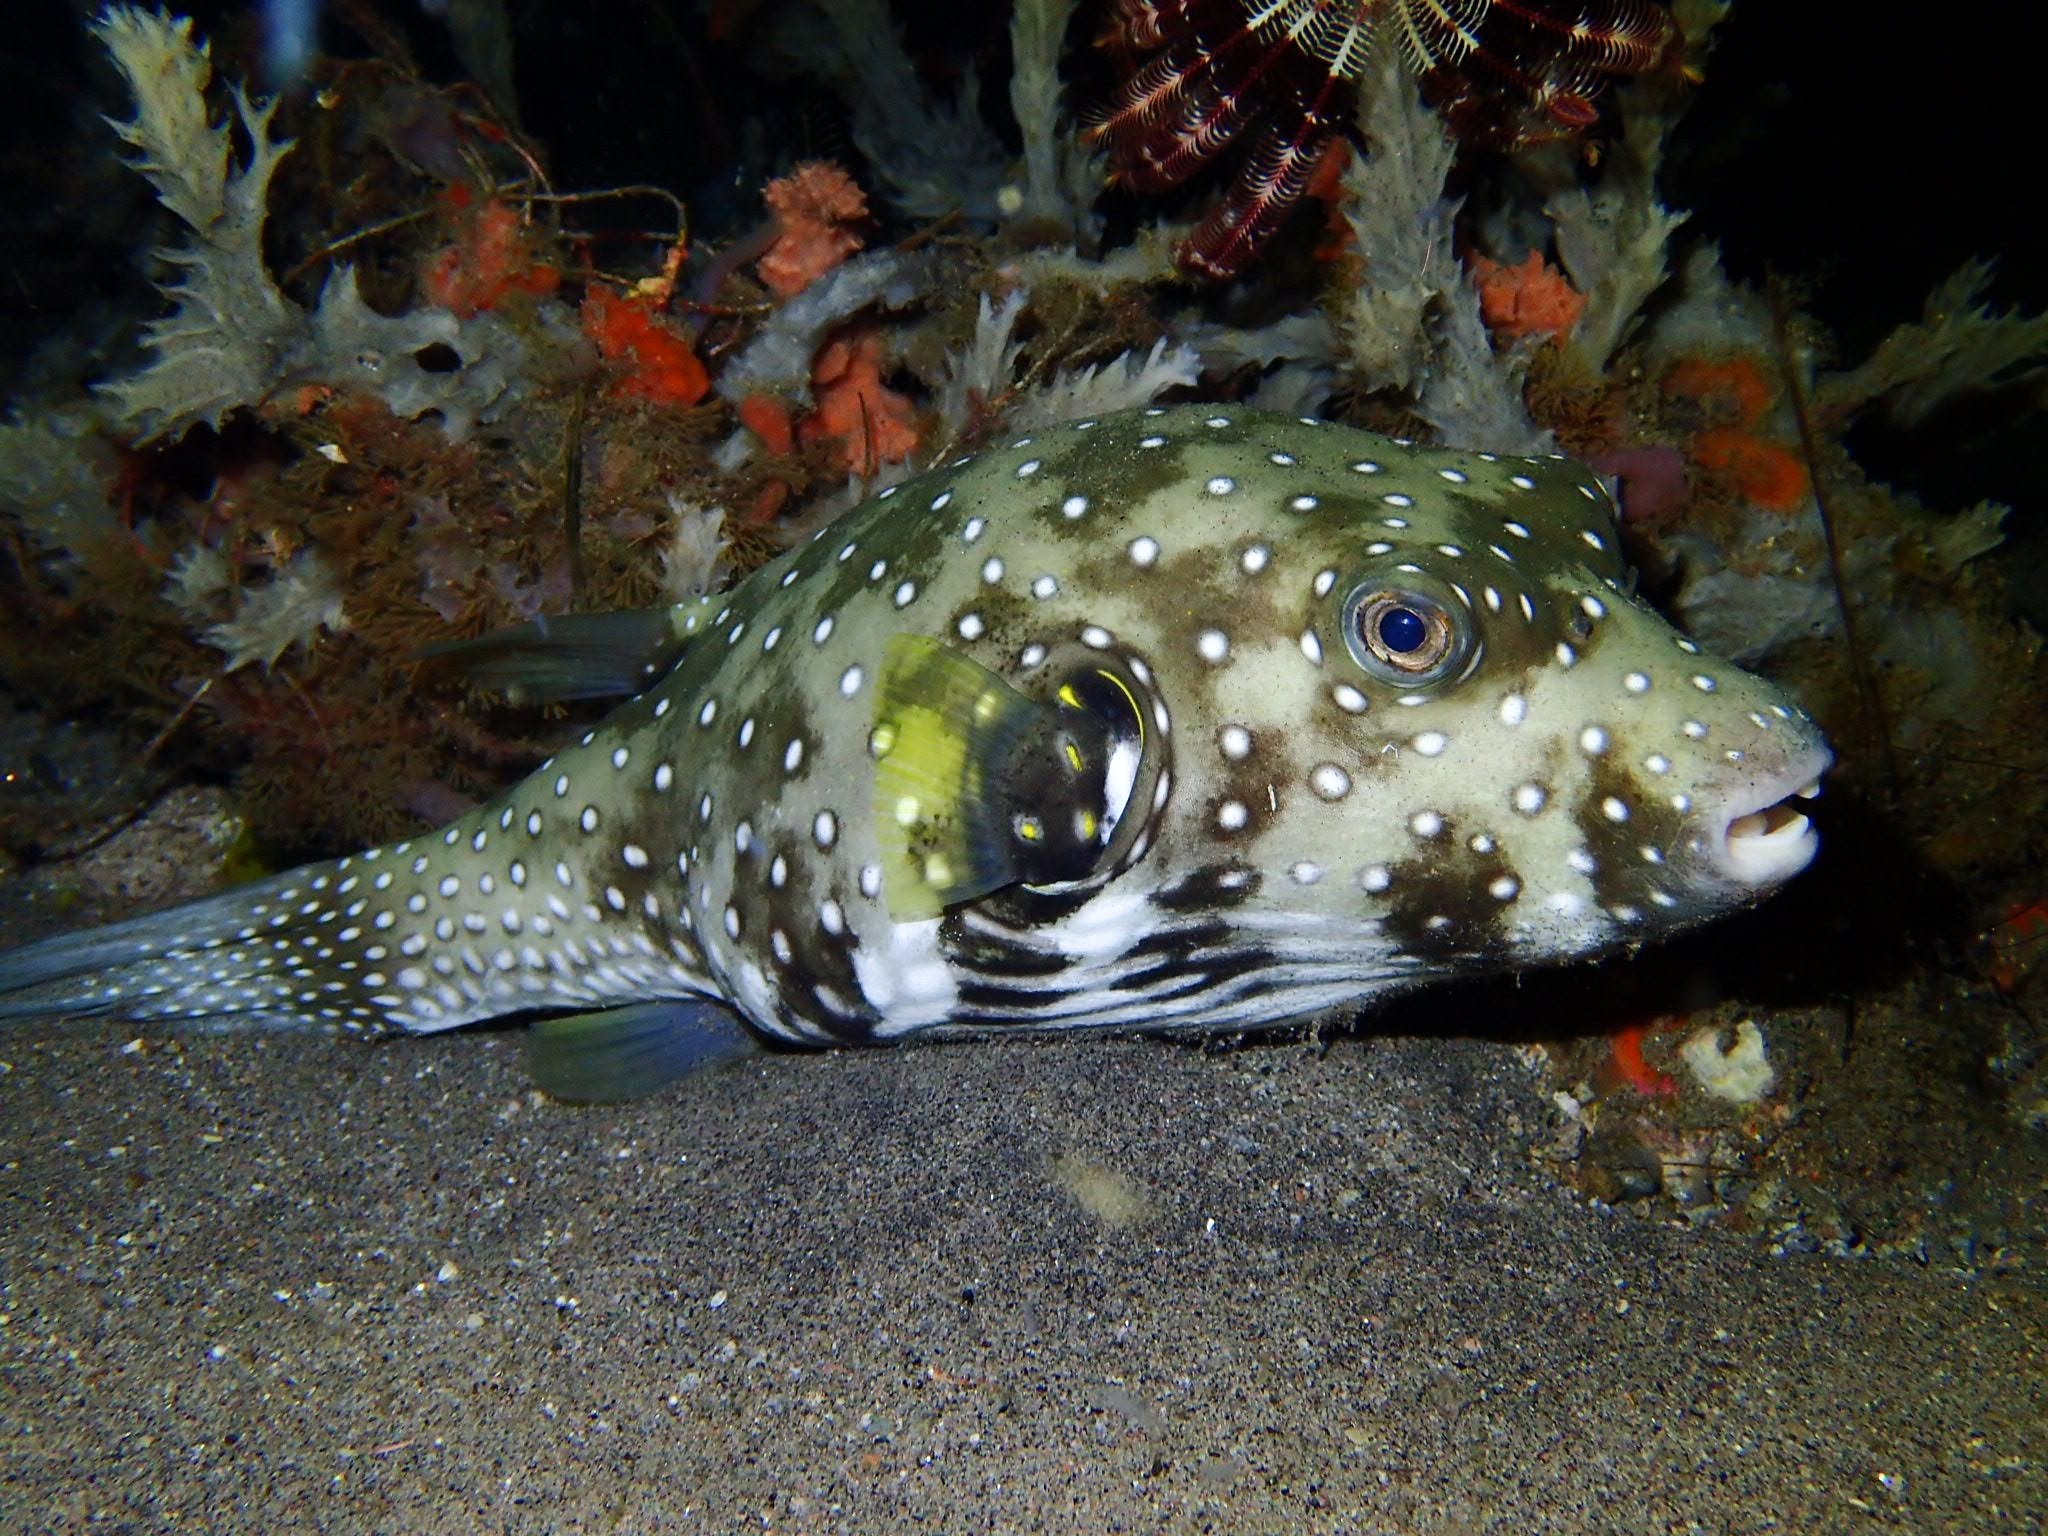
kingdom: Animalia
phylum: Chordata
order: Tetraodontiformes
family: Tetraodontidae
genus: Arothron
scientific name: Arothron hispidus
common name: Stripebelly puffer
